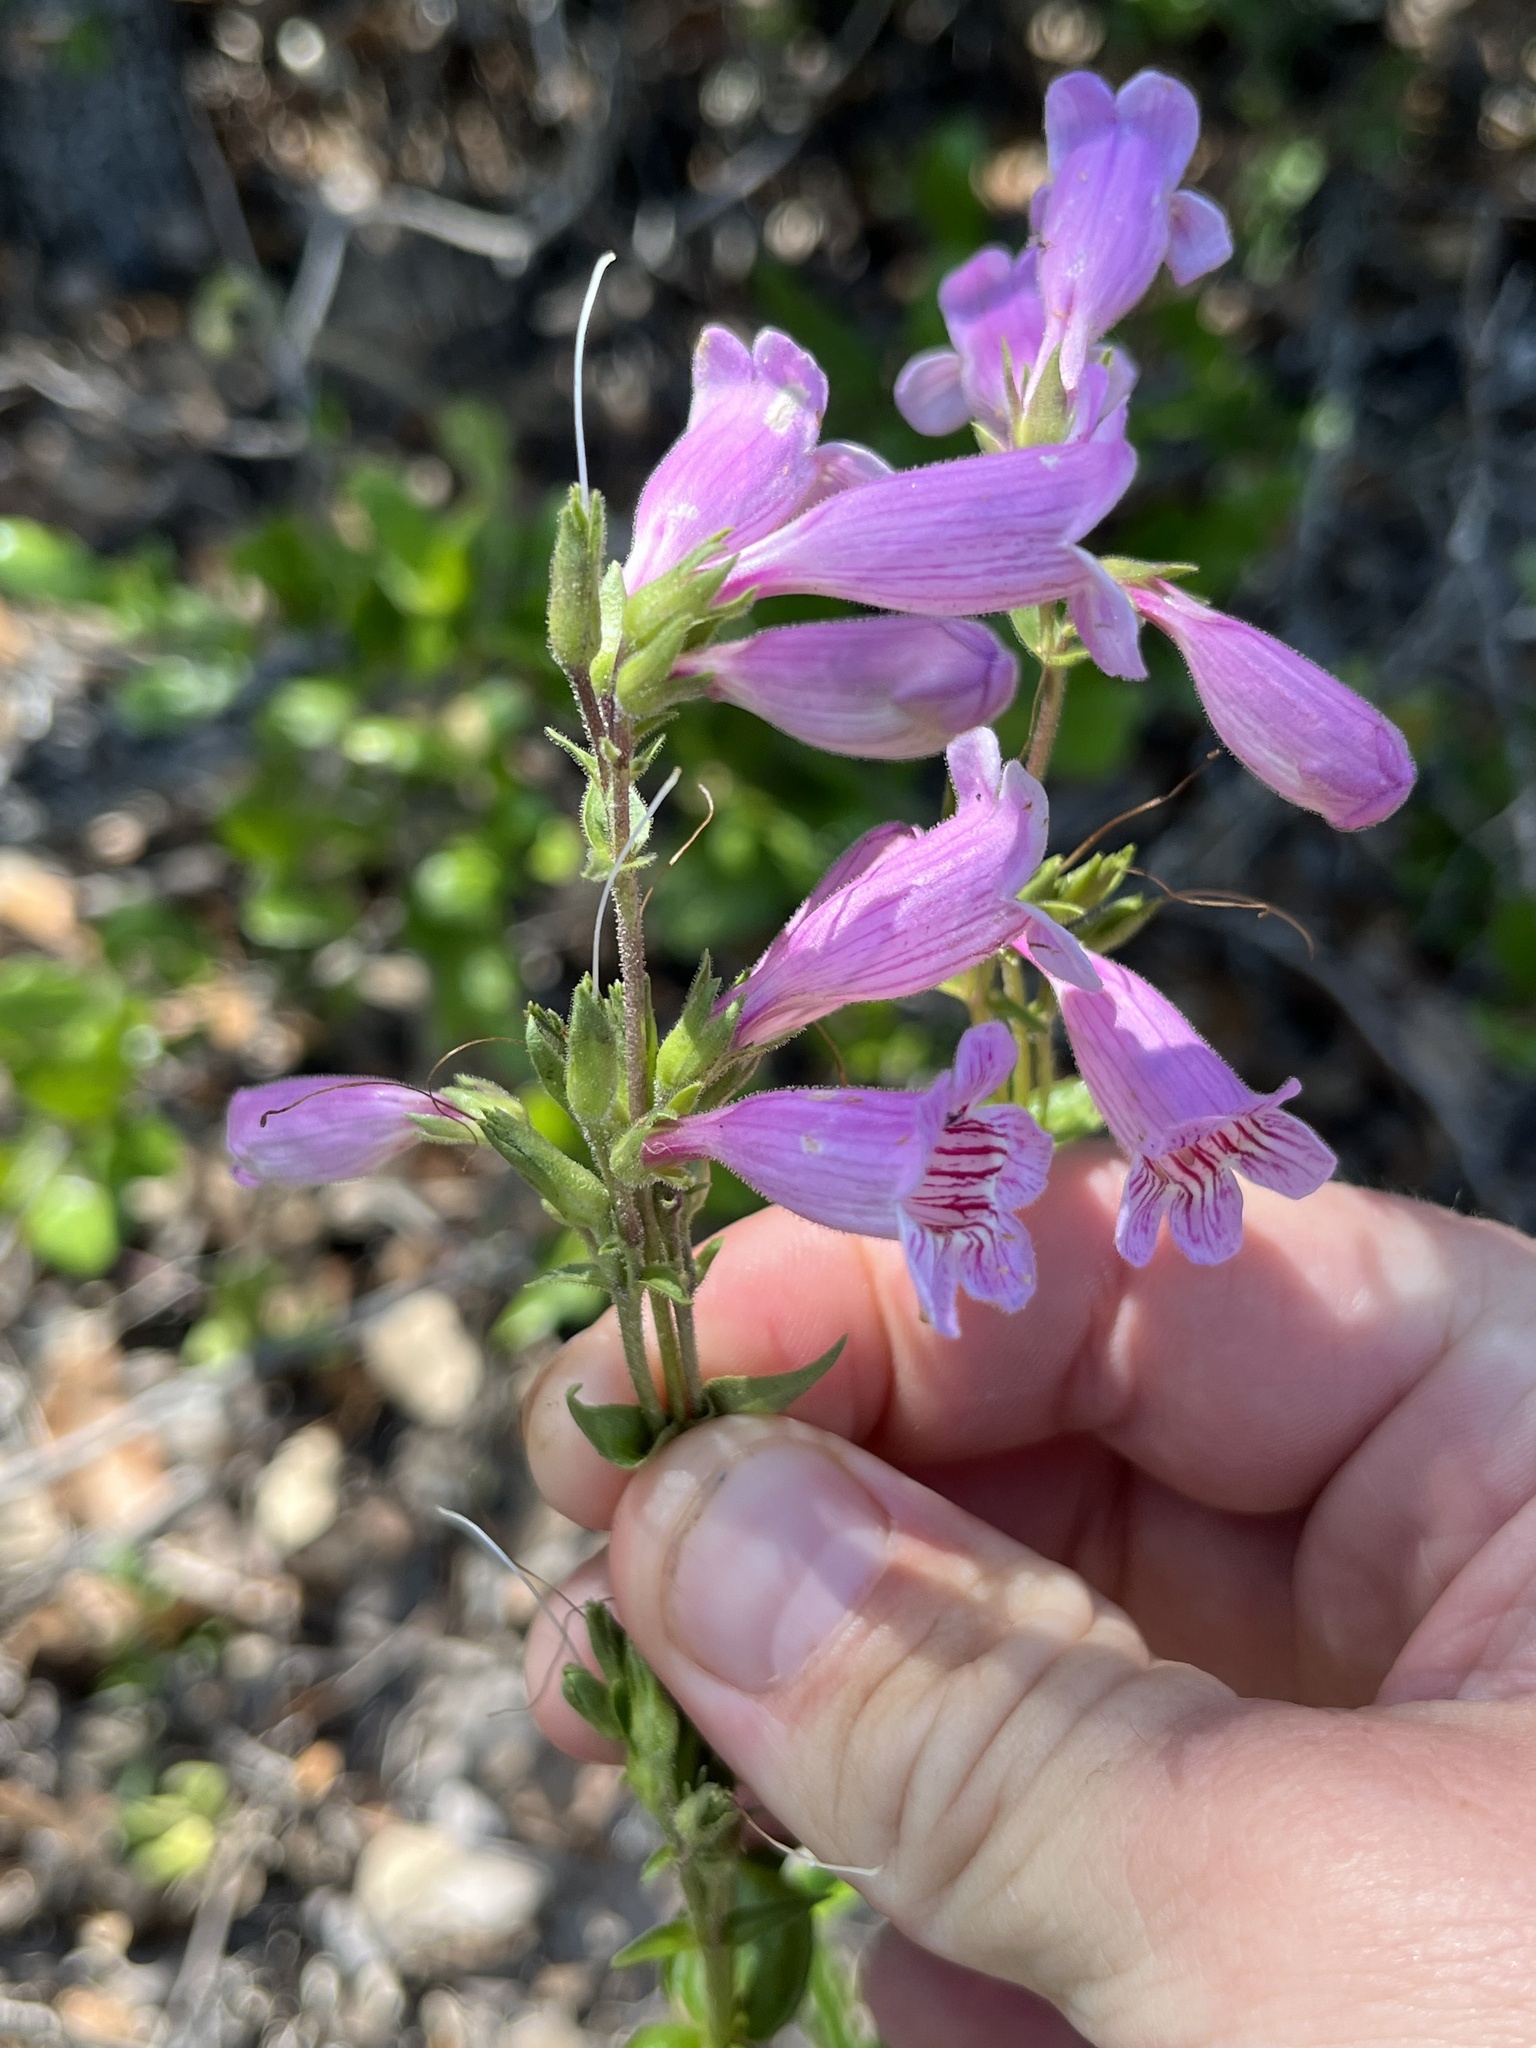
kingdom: Plantae
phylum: Tracheophyta
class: Magnoliopsida
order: Lamiales
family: Plantaginaceae
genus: Penstemon
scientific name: Penstemon triflorus
